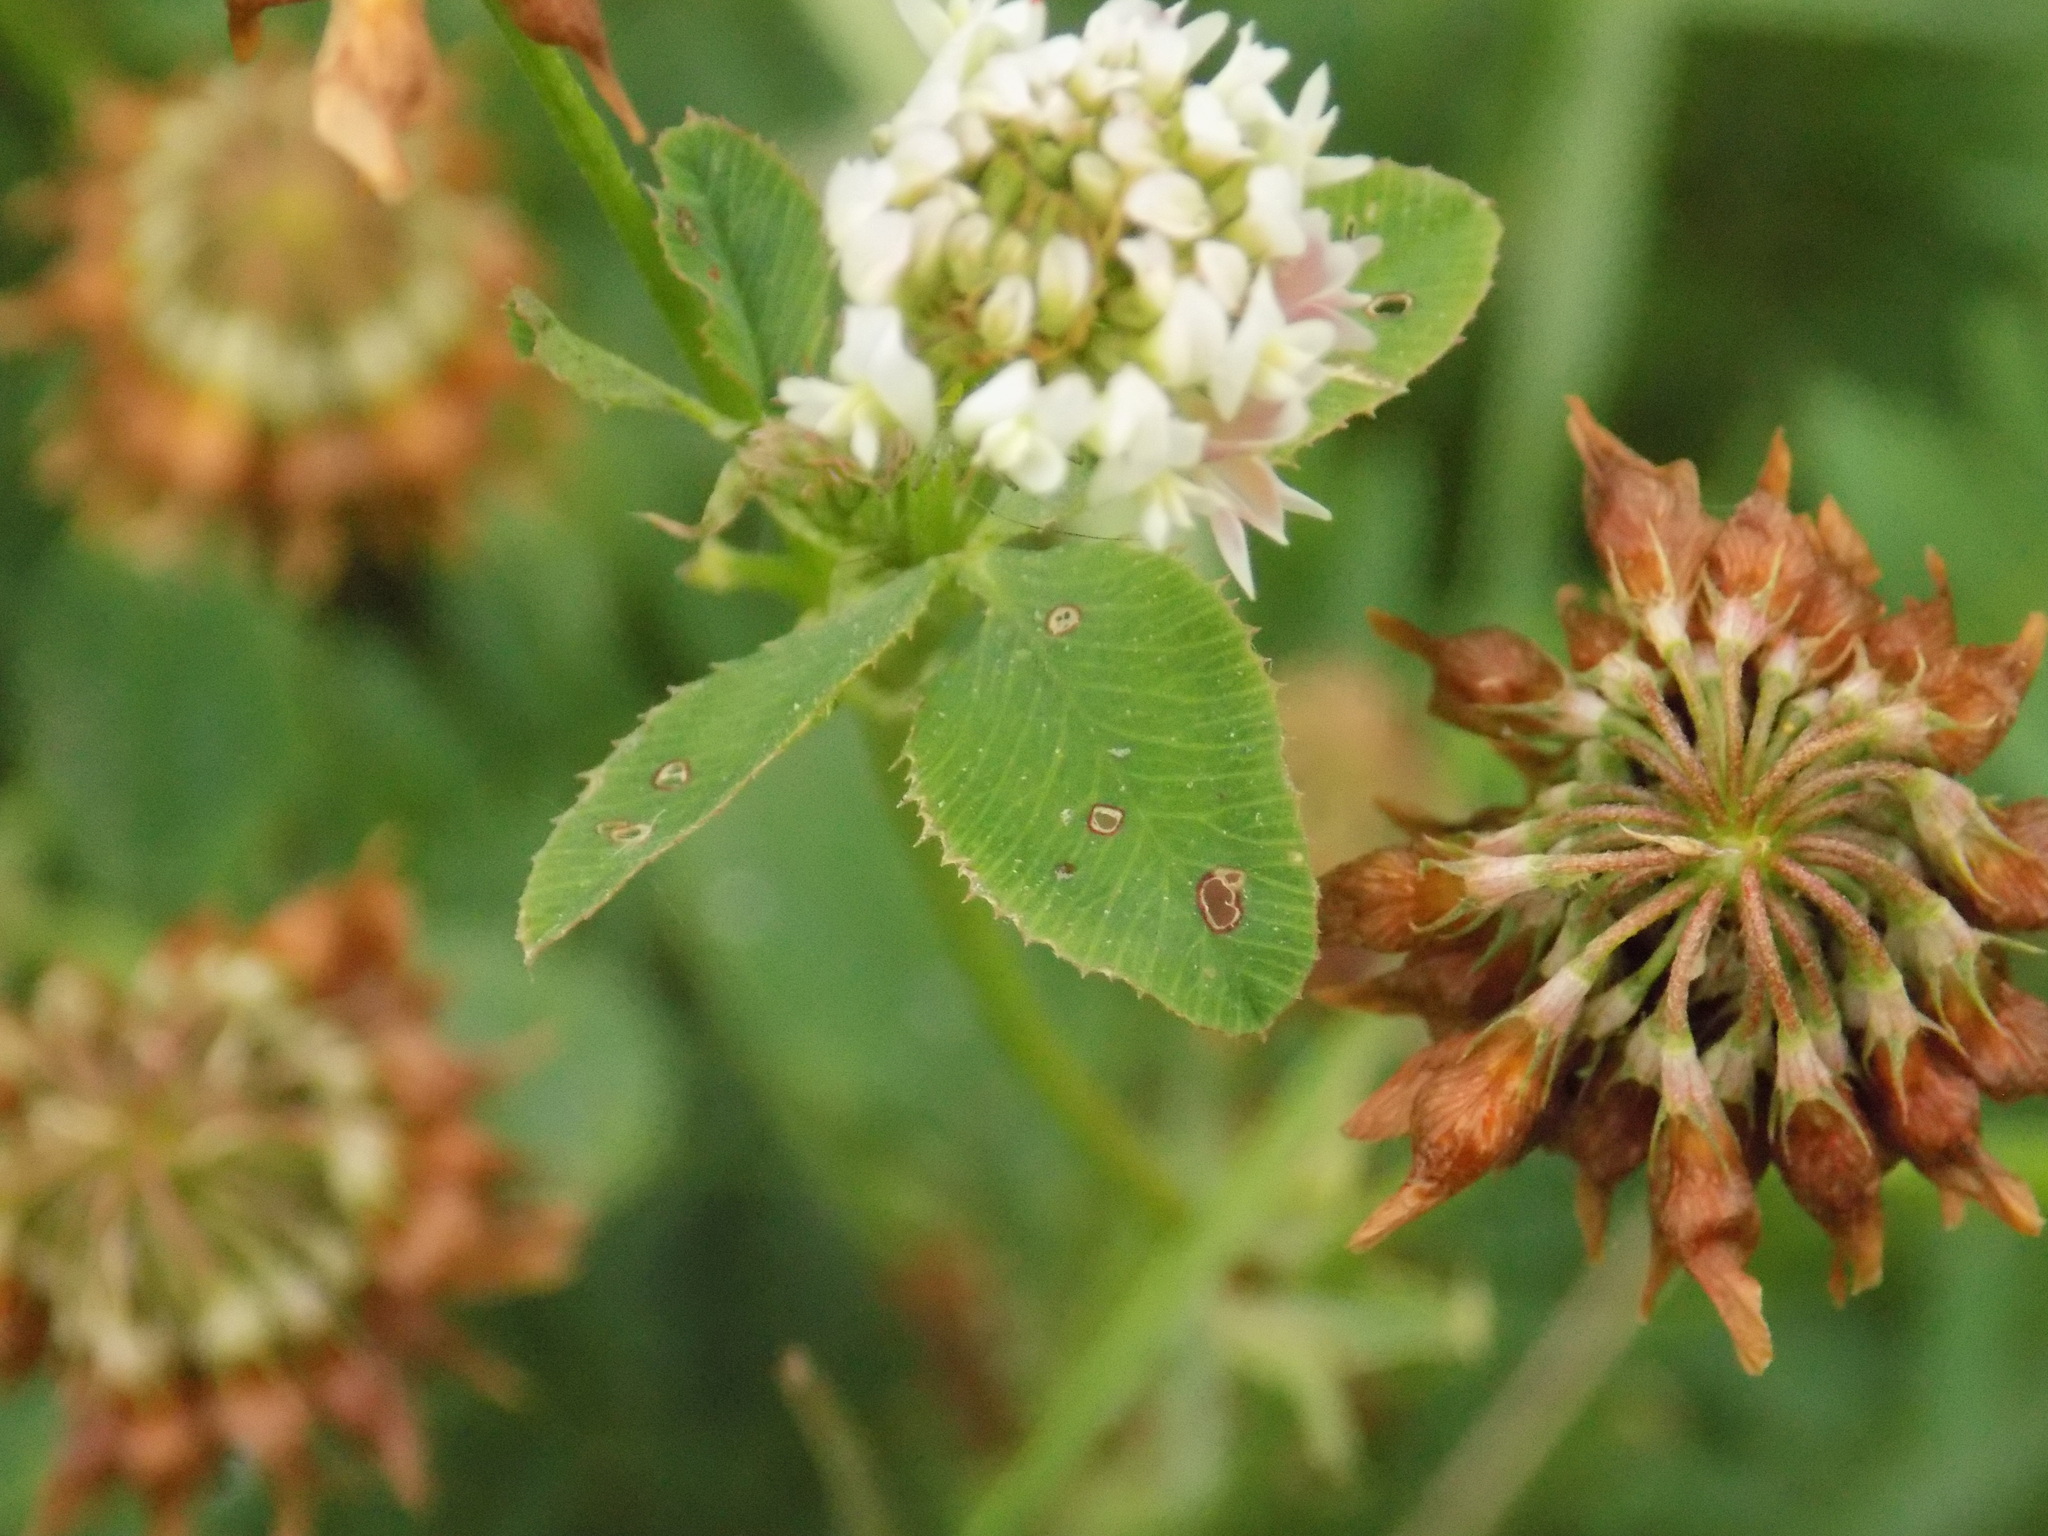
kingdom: Plantae
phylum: Tracheophyta
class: Magnoliopsida
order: Fabales
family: Fabaceae
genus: Trifolium
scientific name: Trifolium hybridum
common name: Alsike clover
